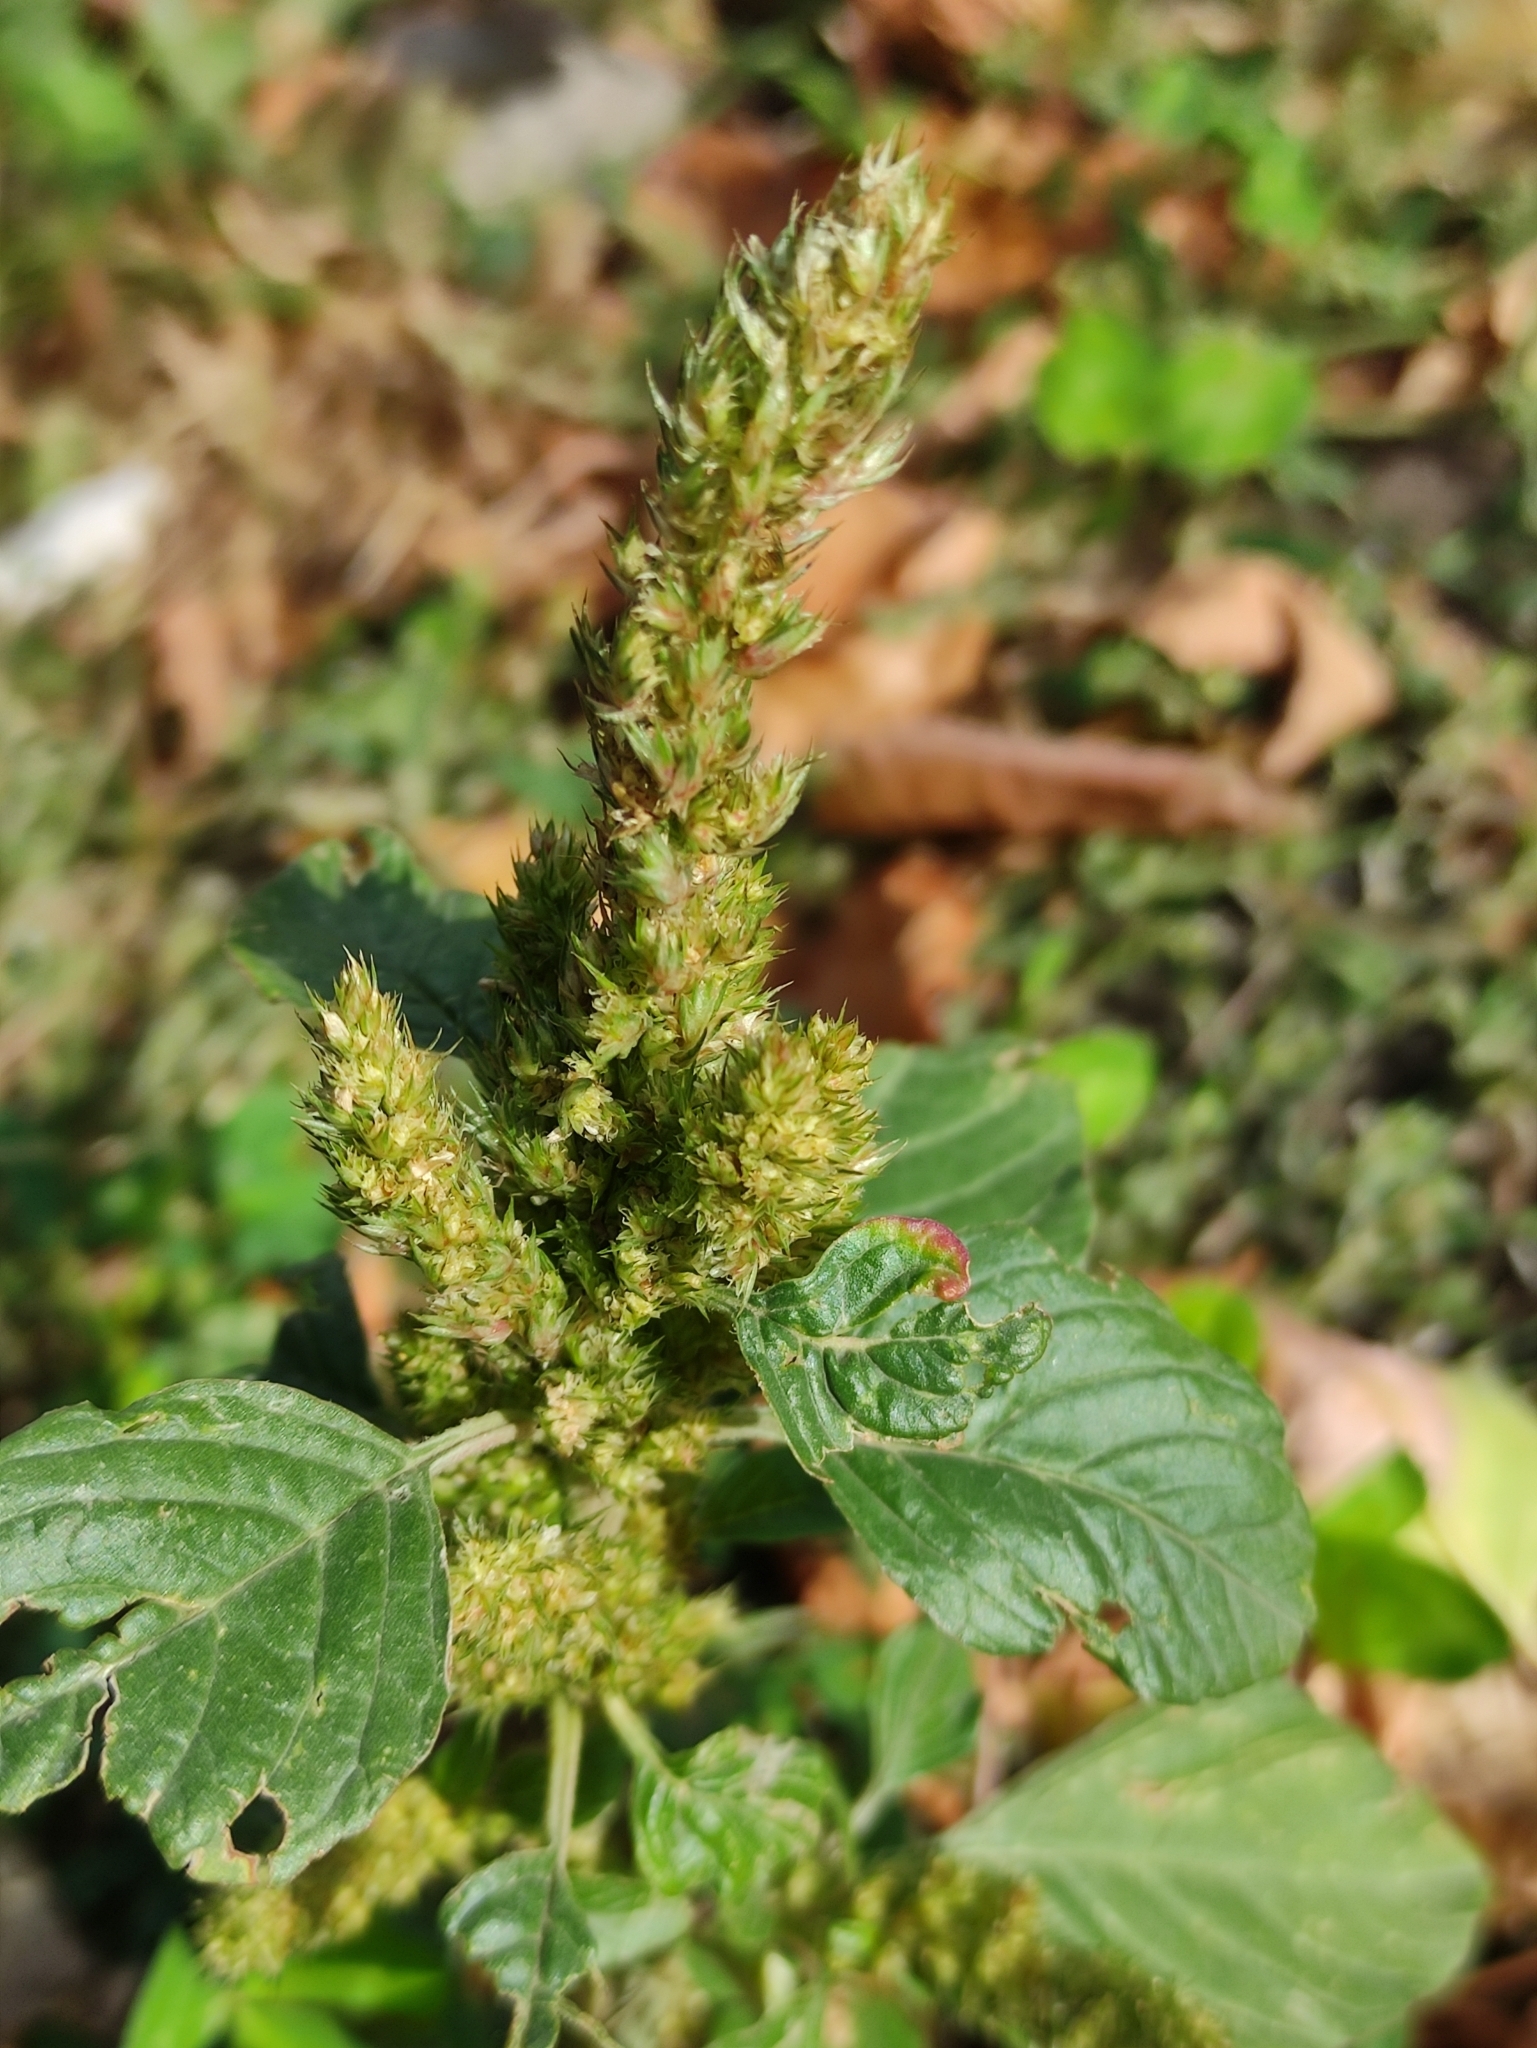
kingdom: Plantae
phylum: Tracheophyta
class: Magnoliopsida
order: Caryophyllales
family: Amaranthaceae
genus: Amaranthus
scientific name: Amaranthus retroflexus
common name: Redroot amaranth
